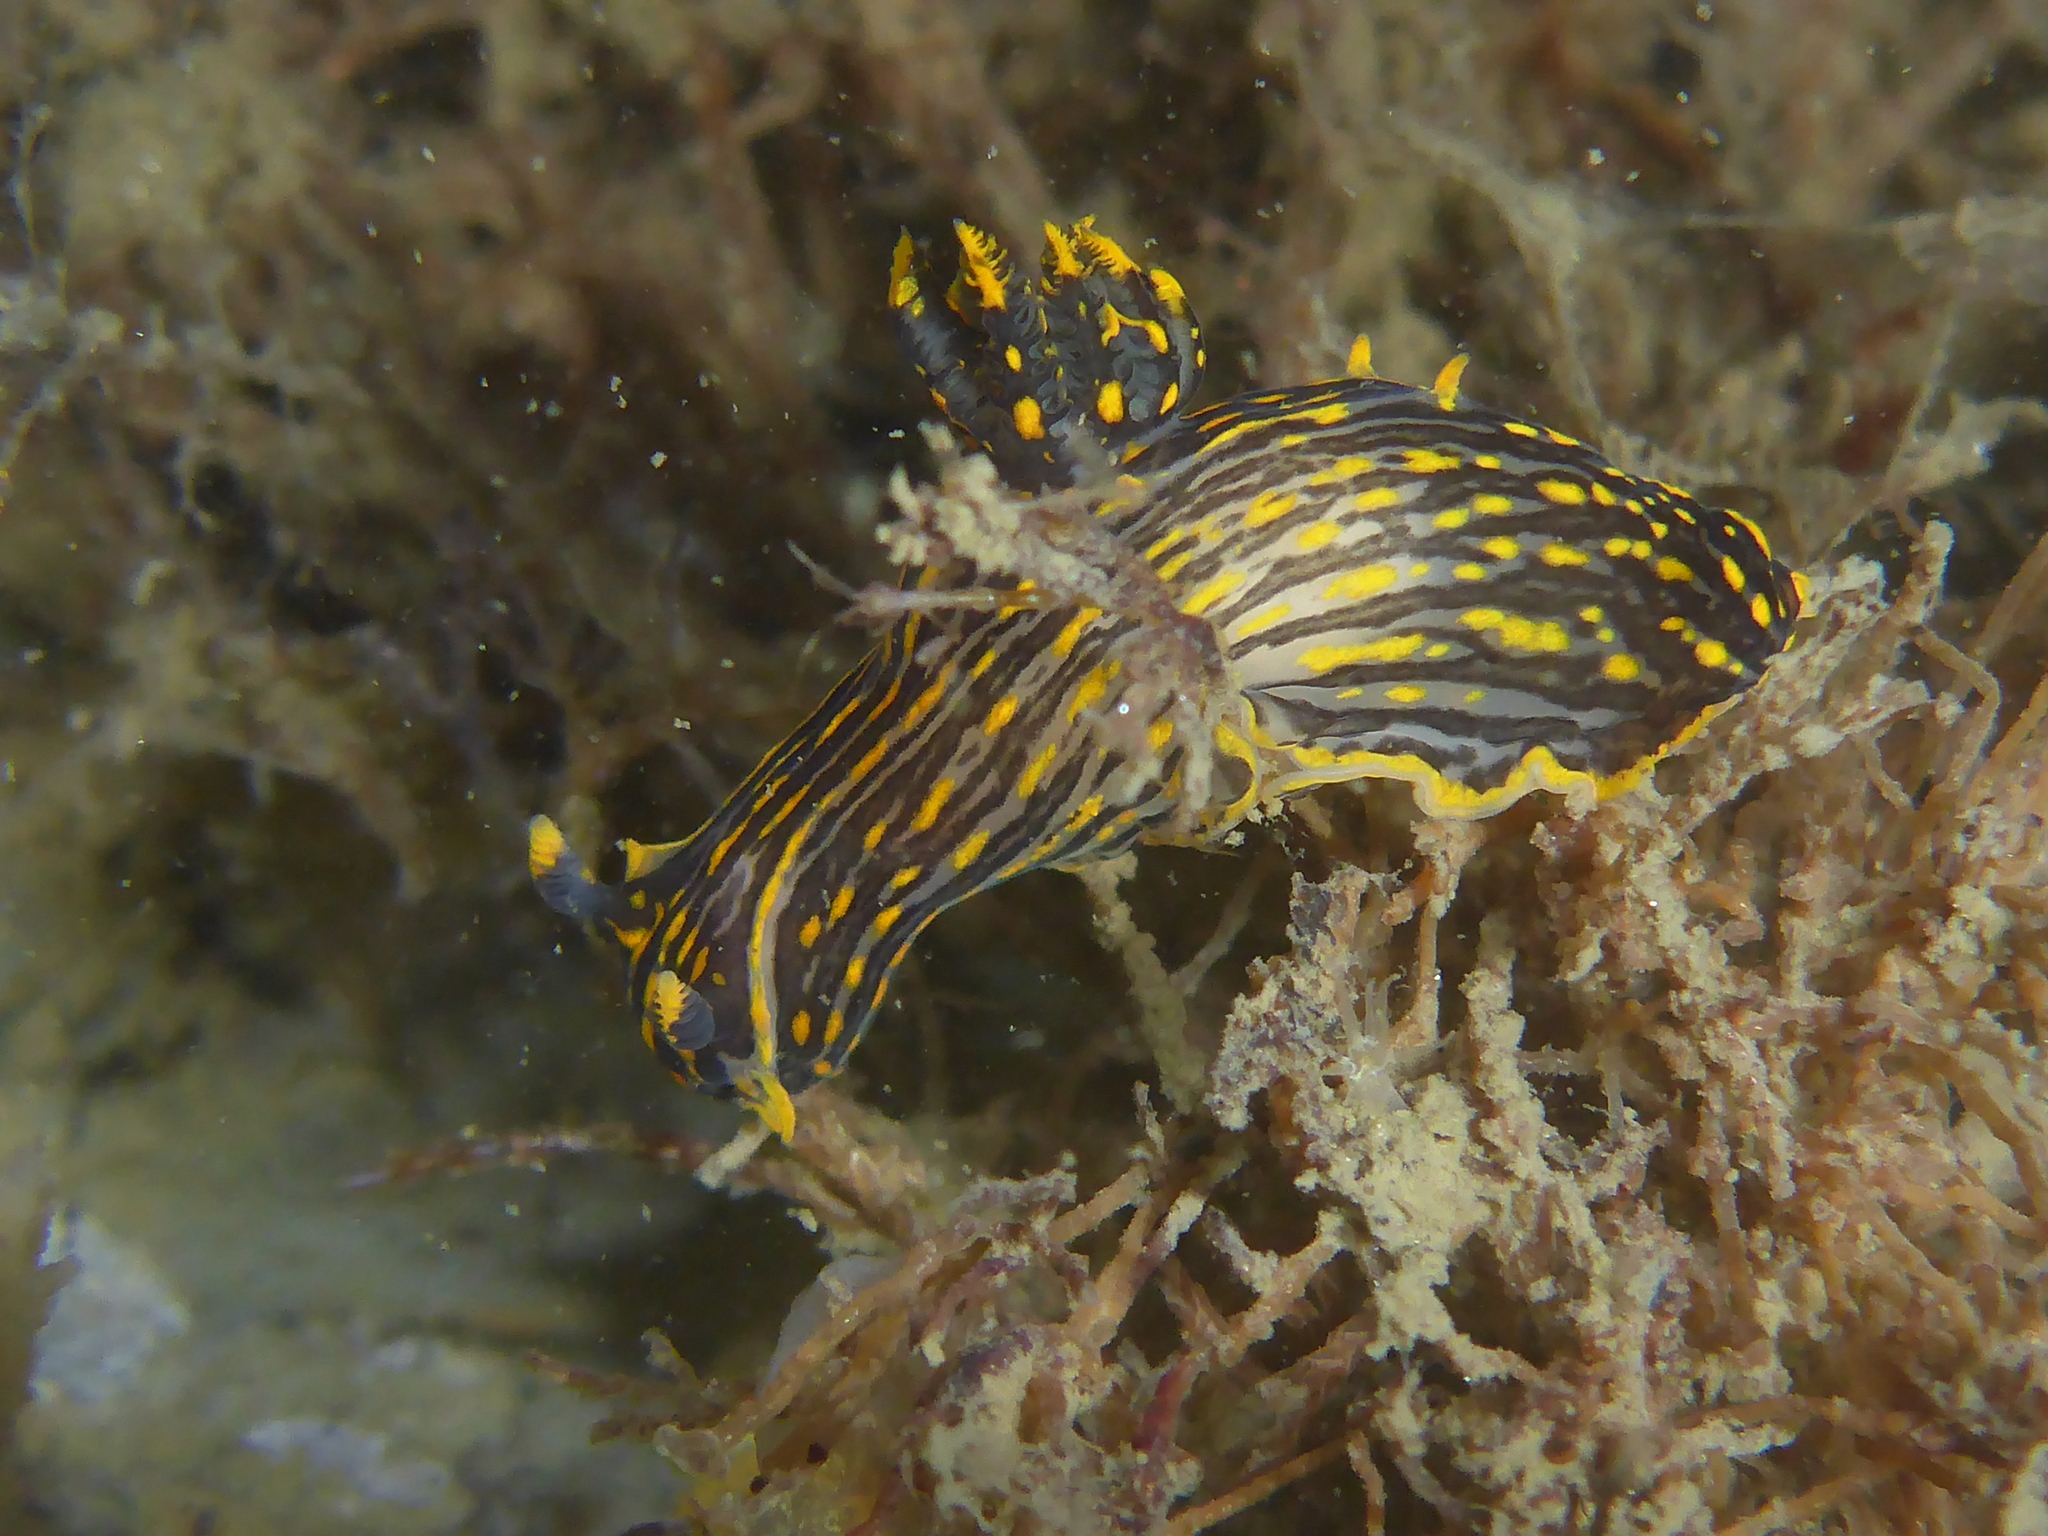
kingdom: Animalia
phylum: Mollusca
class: Gastropoda
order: Nudibranchia
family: Polyceridae
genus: Polycera
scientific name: Polycera atra
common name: Orange-spike polycera
